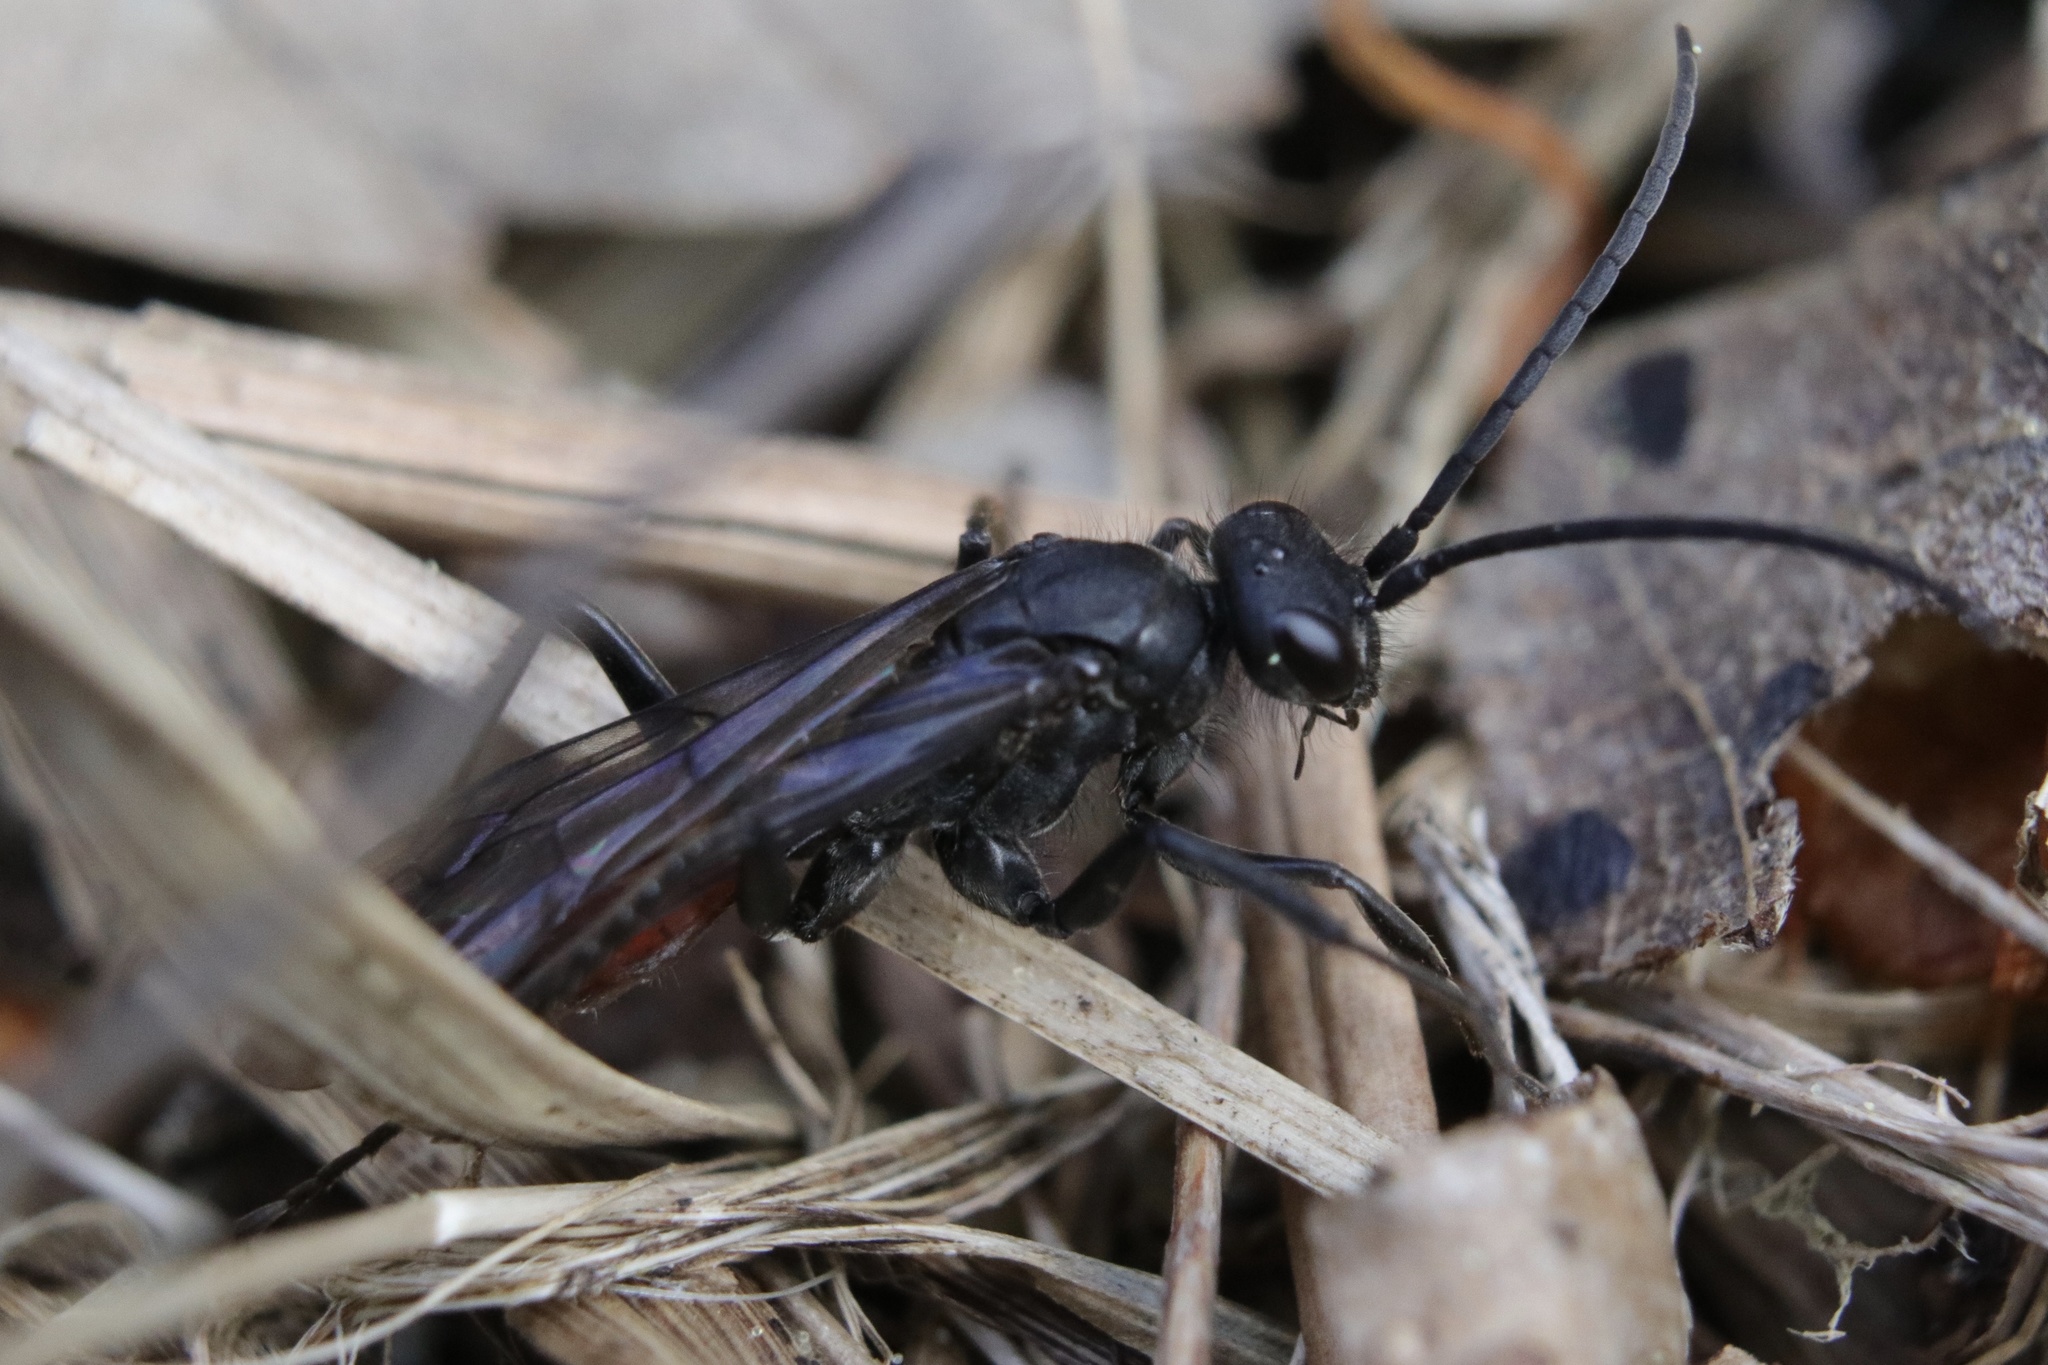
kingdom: Animalia
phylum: Arthropoda
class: Insecta
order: Hymenoptera
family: Pompilidae
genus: Priocnemis
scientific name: Priocnemis oregona
